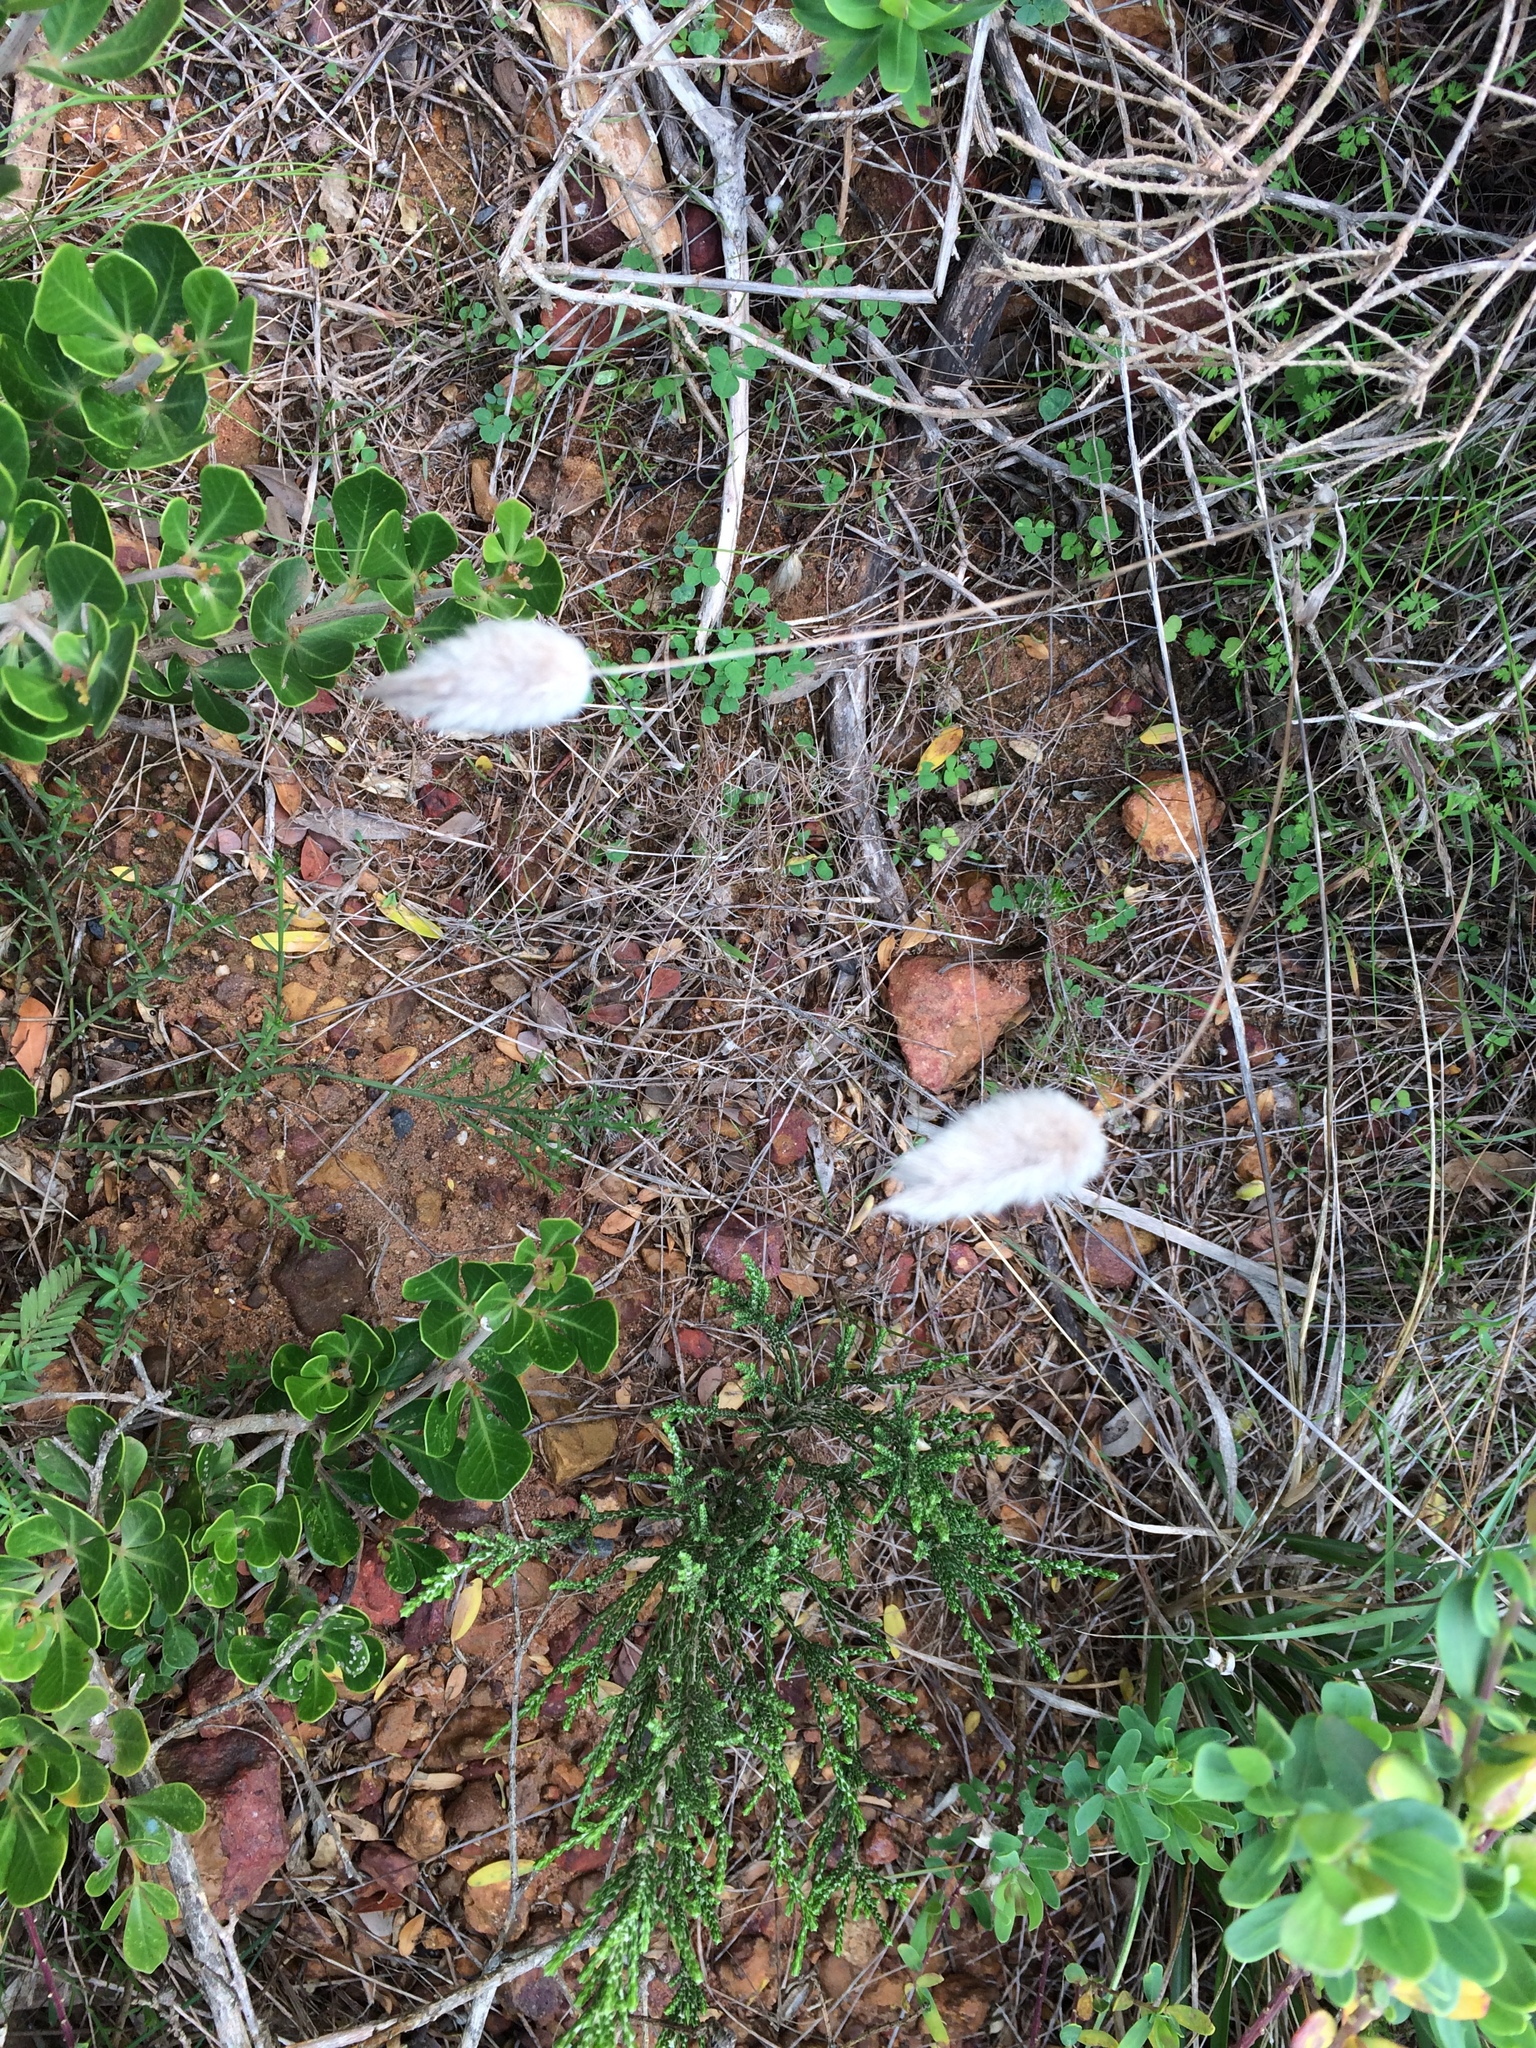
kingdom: Plantae
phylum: Tracheophyta
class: Liliopsida
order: Poales
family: Poaceae
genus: Lagurus
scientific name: Lagurus ovatus
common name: Hare's-tail
